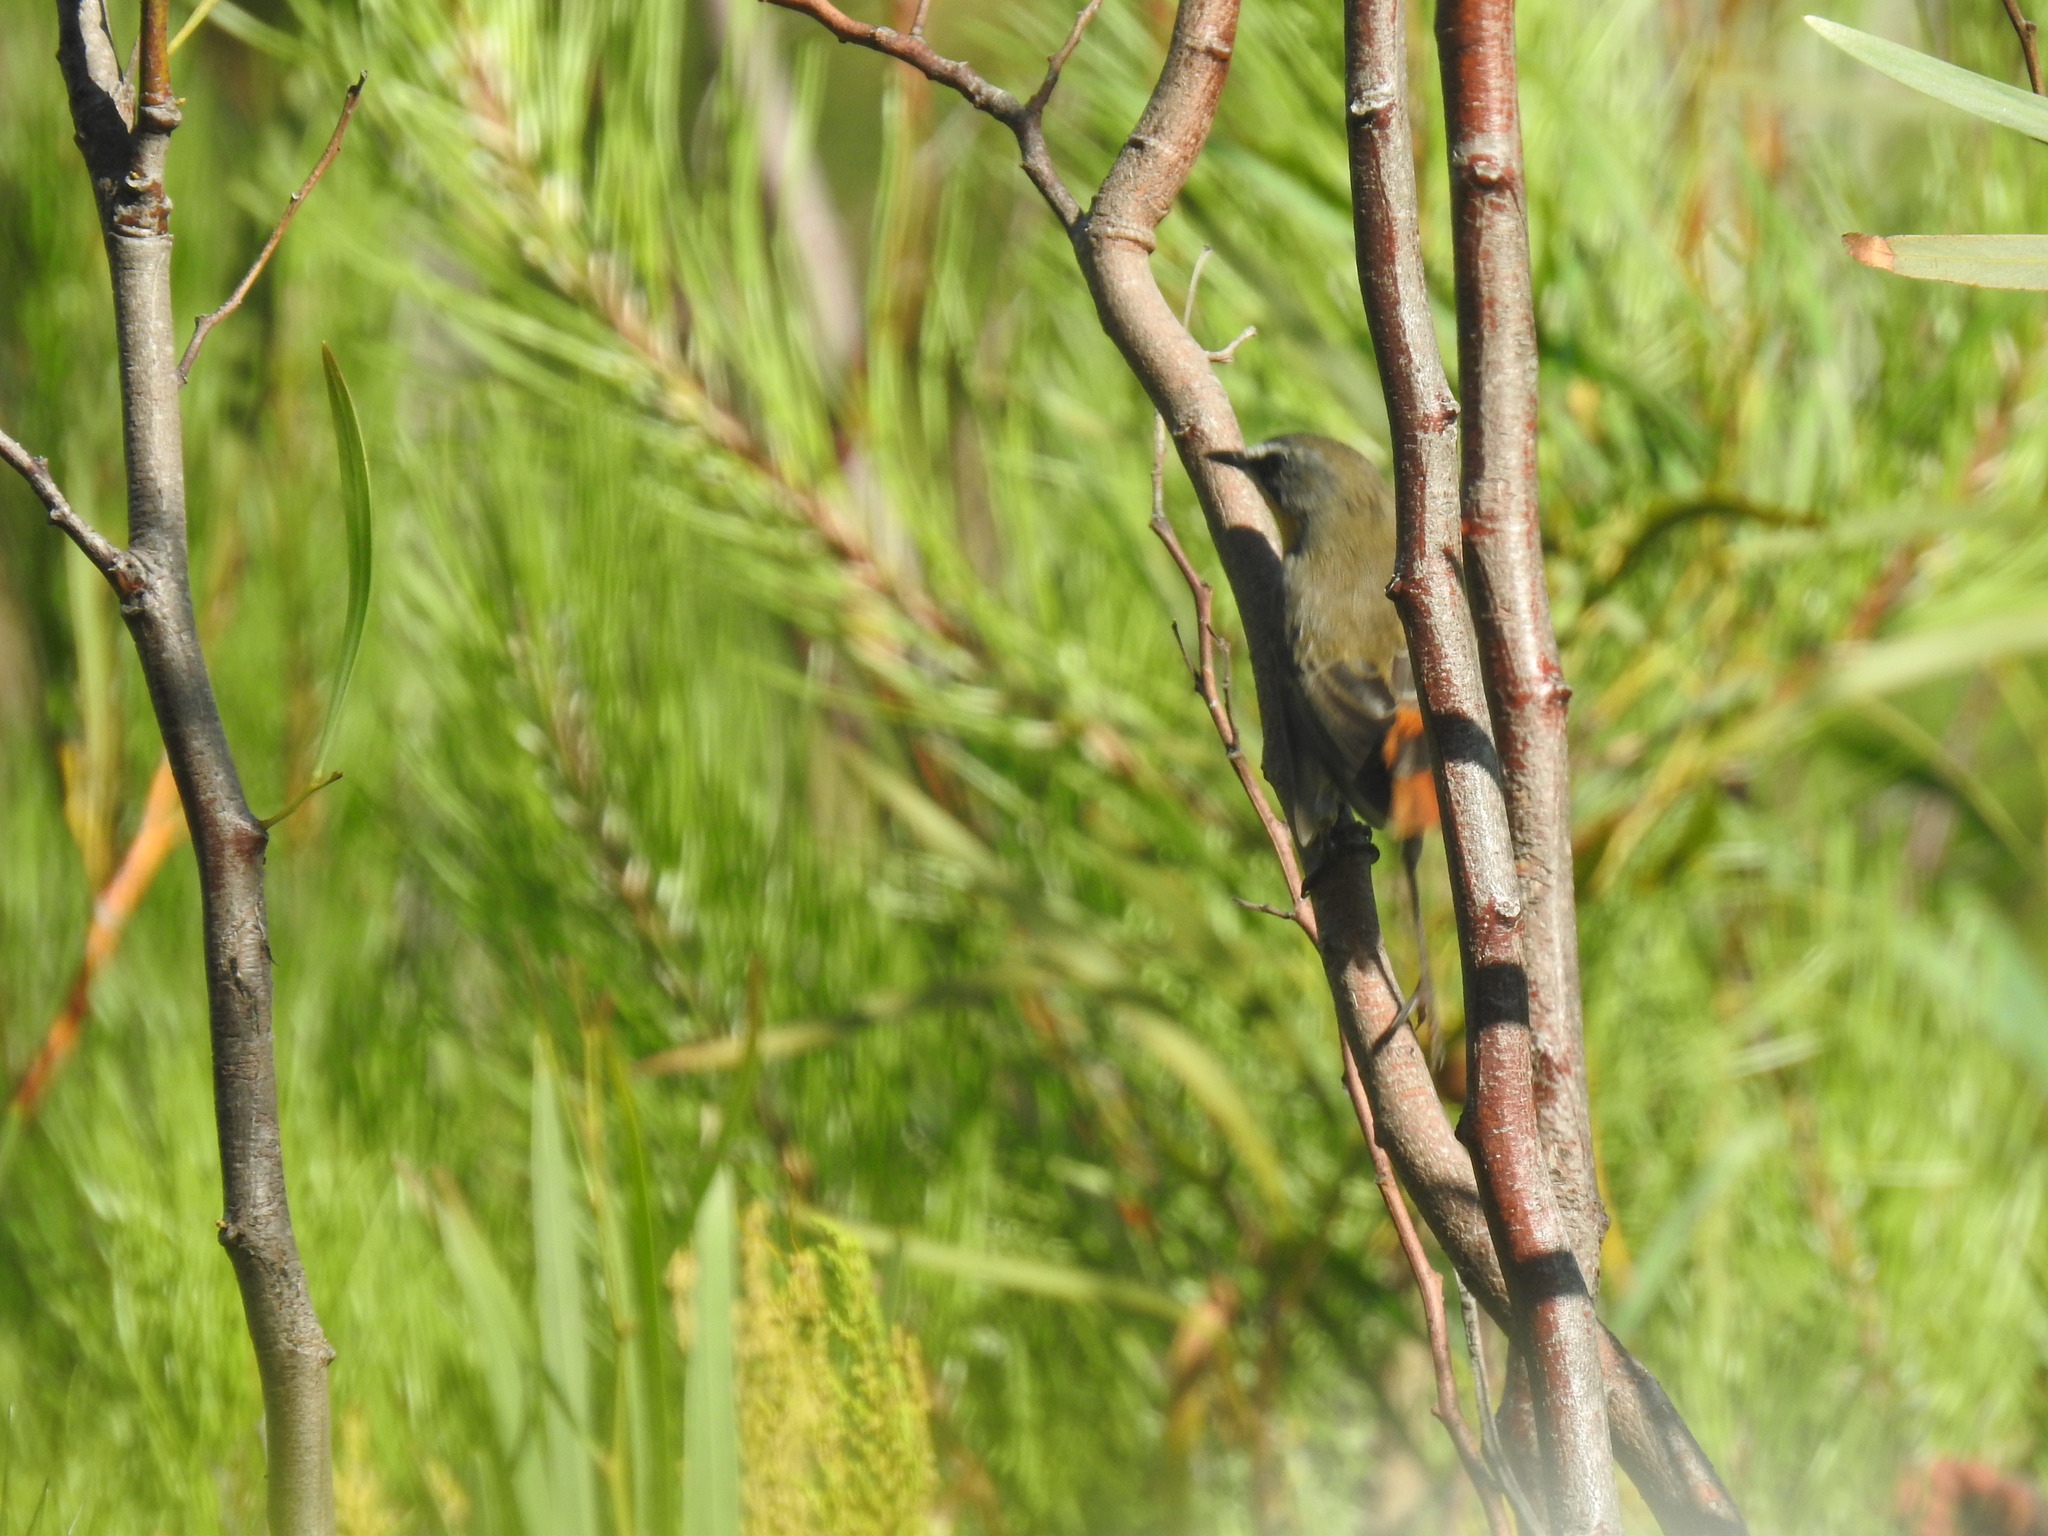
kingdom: Animalia
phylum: Chordata
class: Aves
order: Passeriformes
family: Muscicapidae
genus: Cossypha
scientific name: Cossypha caffra
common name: Cape robin-chat
